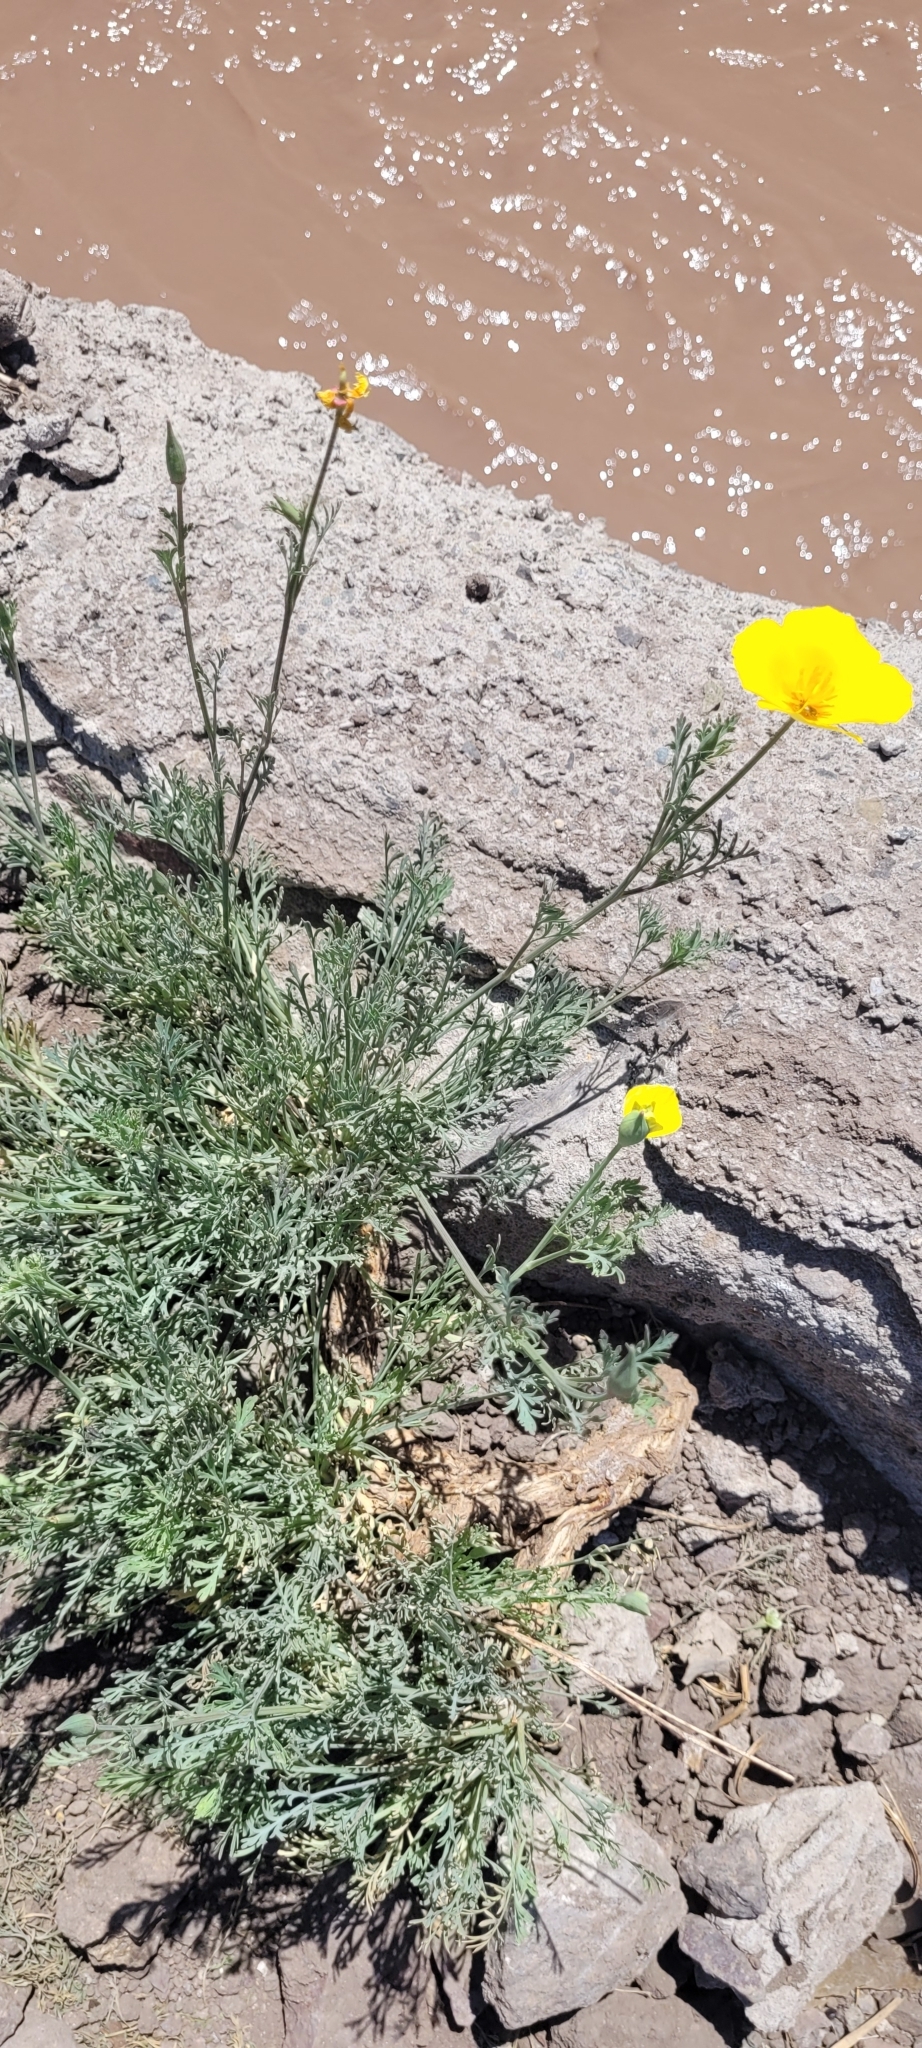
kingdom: Plantae
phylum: Tracheophyta
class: Magnoliopsida
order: Ranunculales
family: Papaveraceae
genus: Eschscholzia
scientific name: Eschscholzia californica
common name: California poppy
